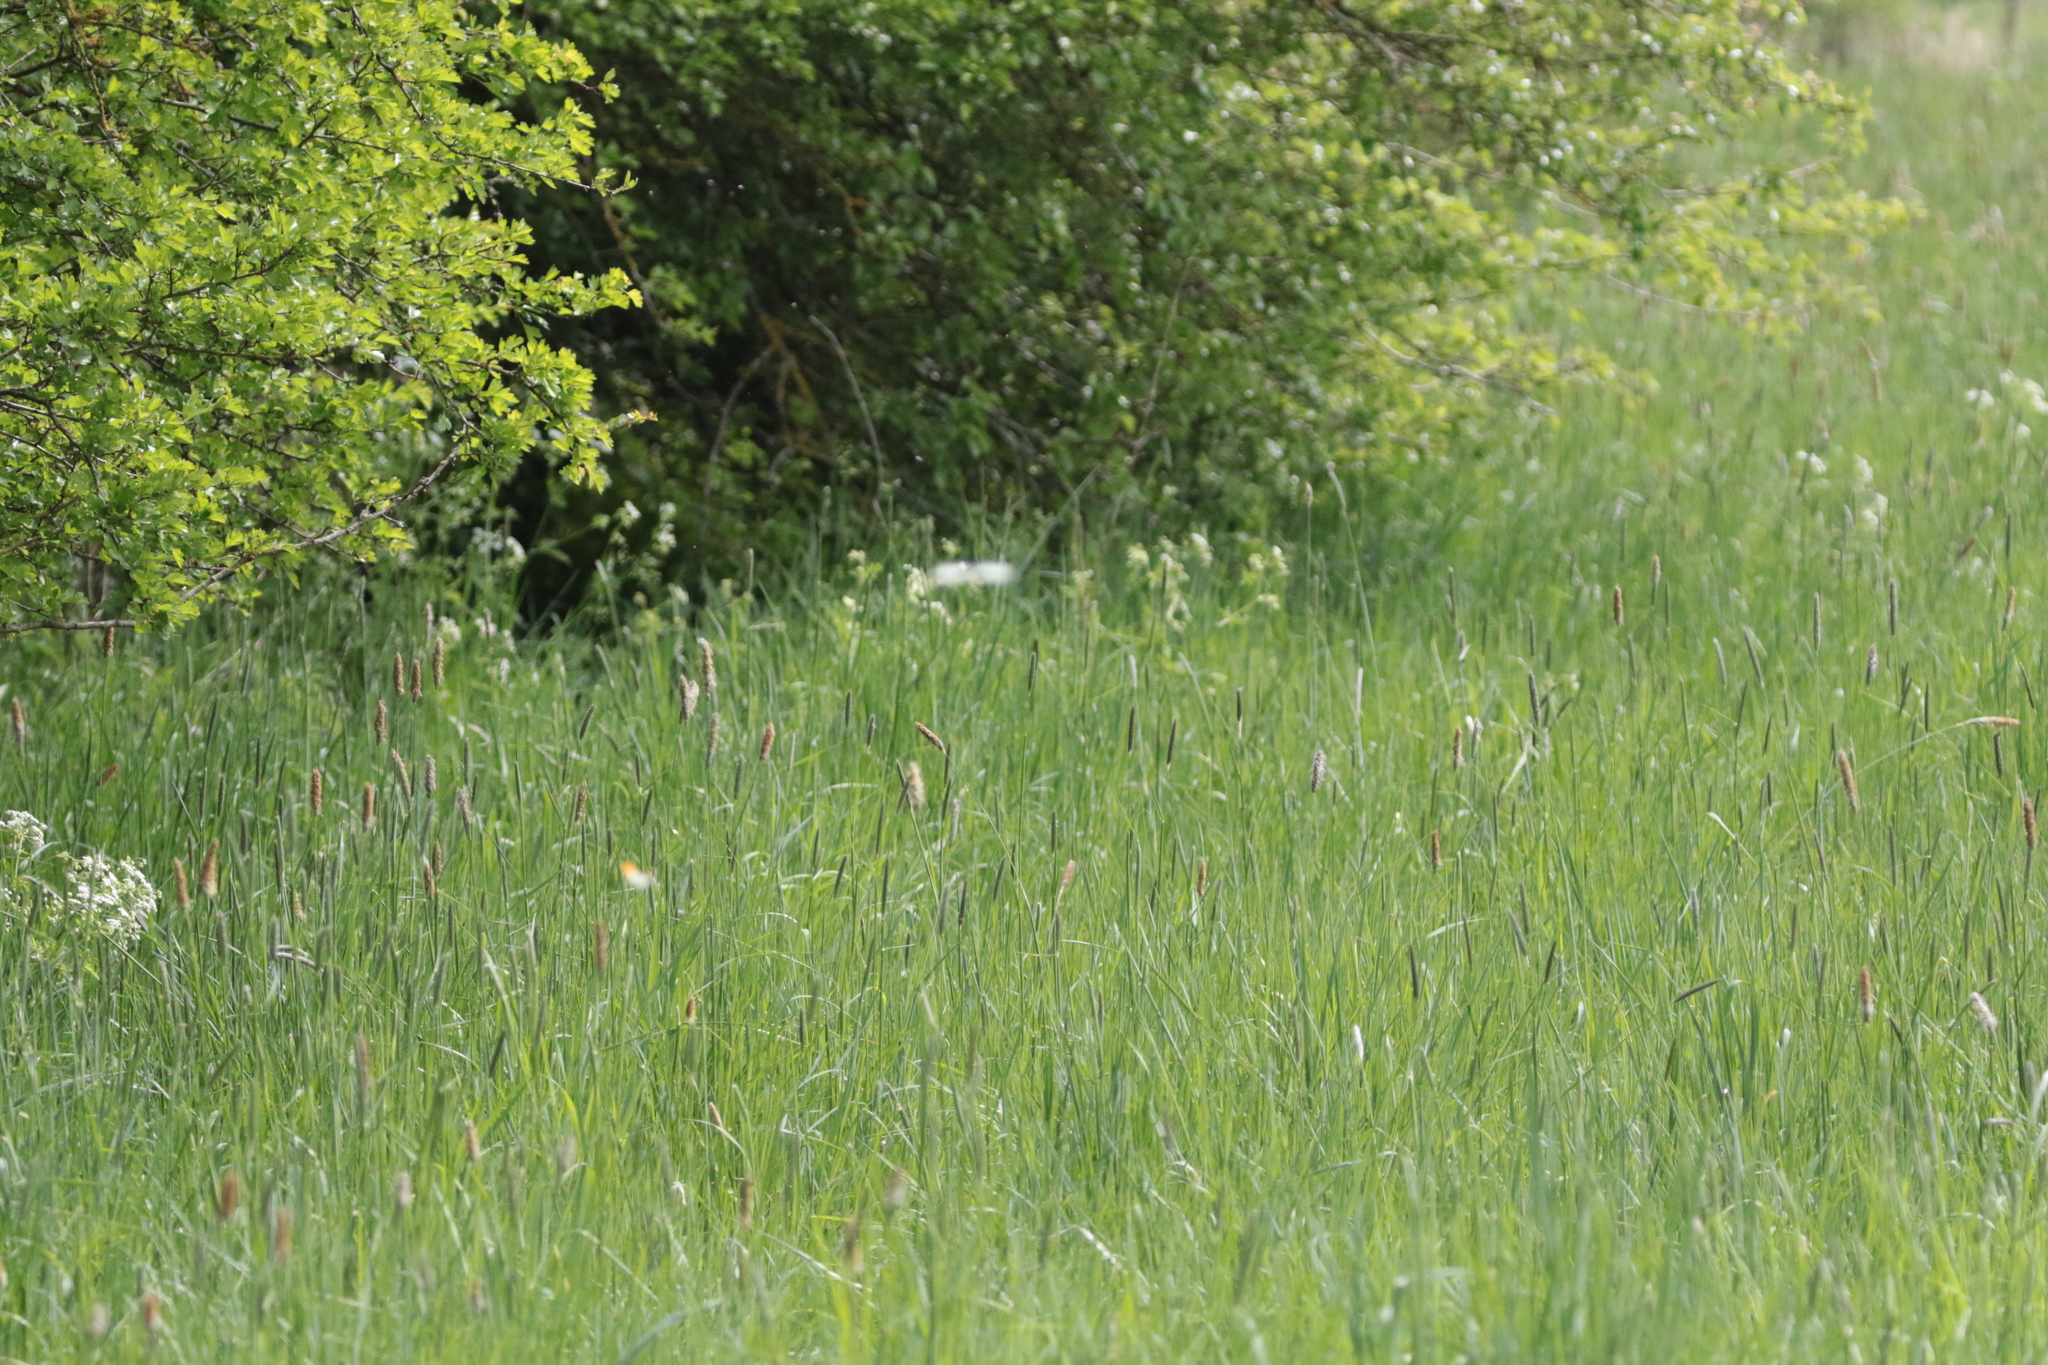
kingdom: Animalia
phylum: Arthropoda
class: Insecta
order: Lepidoptera
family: Pieridae
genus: Anthocharis
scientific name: Anthocharis cardamines
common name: Orange-tip
